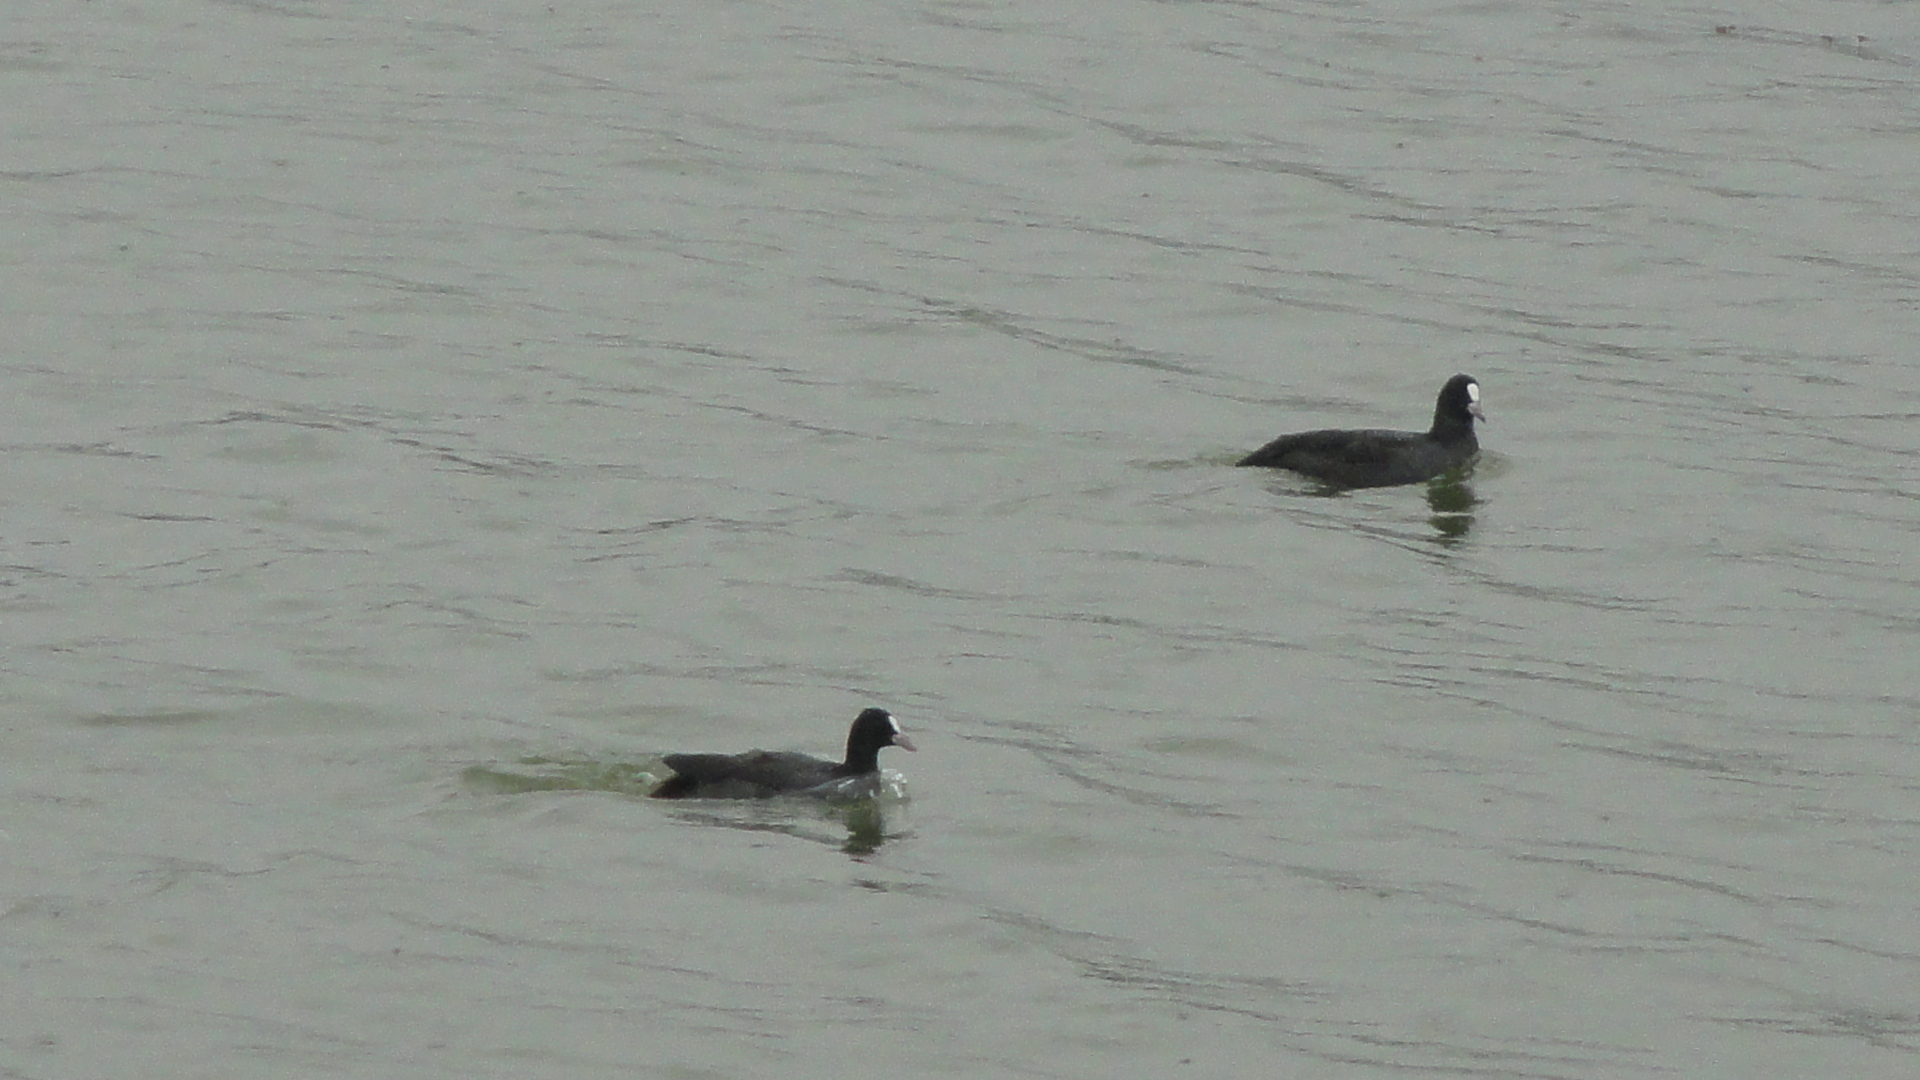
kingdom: Animalia
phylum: Chordata
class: Aves
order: Gruiformes
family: Rallidae
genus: Fulica
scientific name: Fulica atra
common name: Eurasian coot
